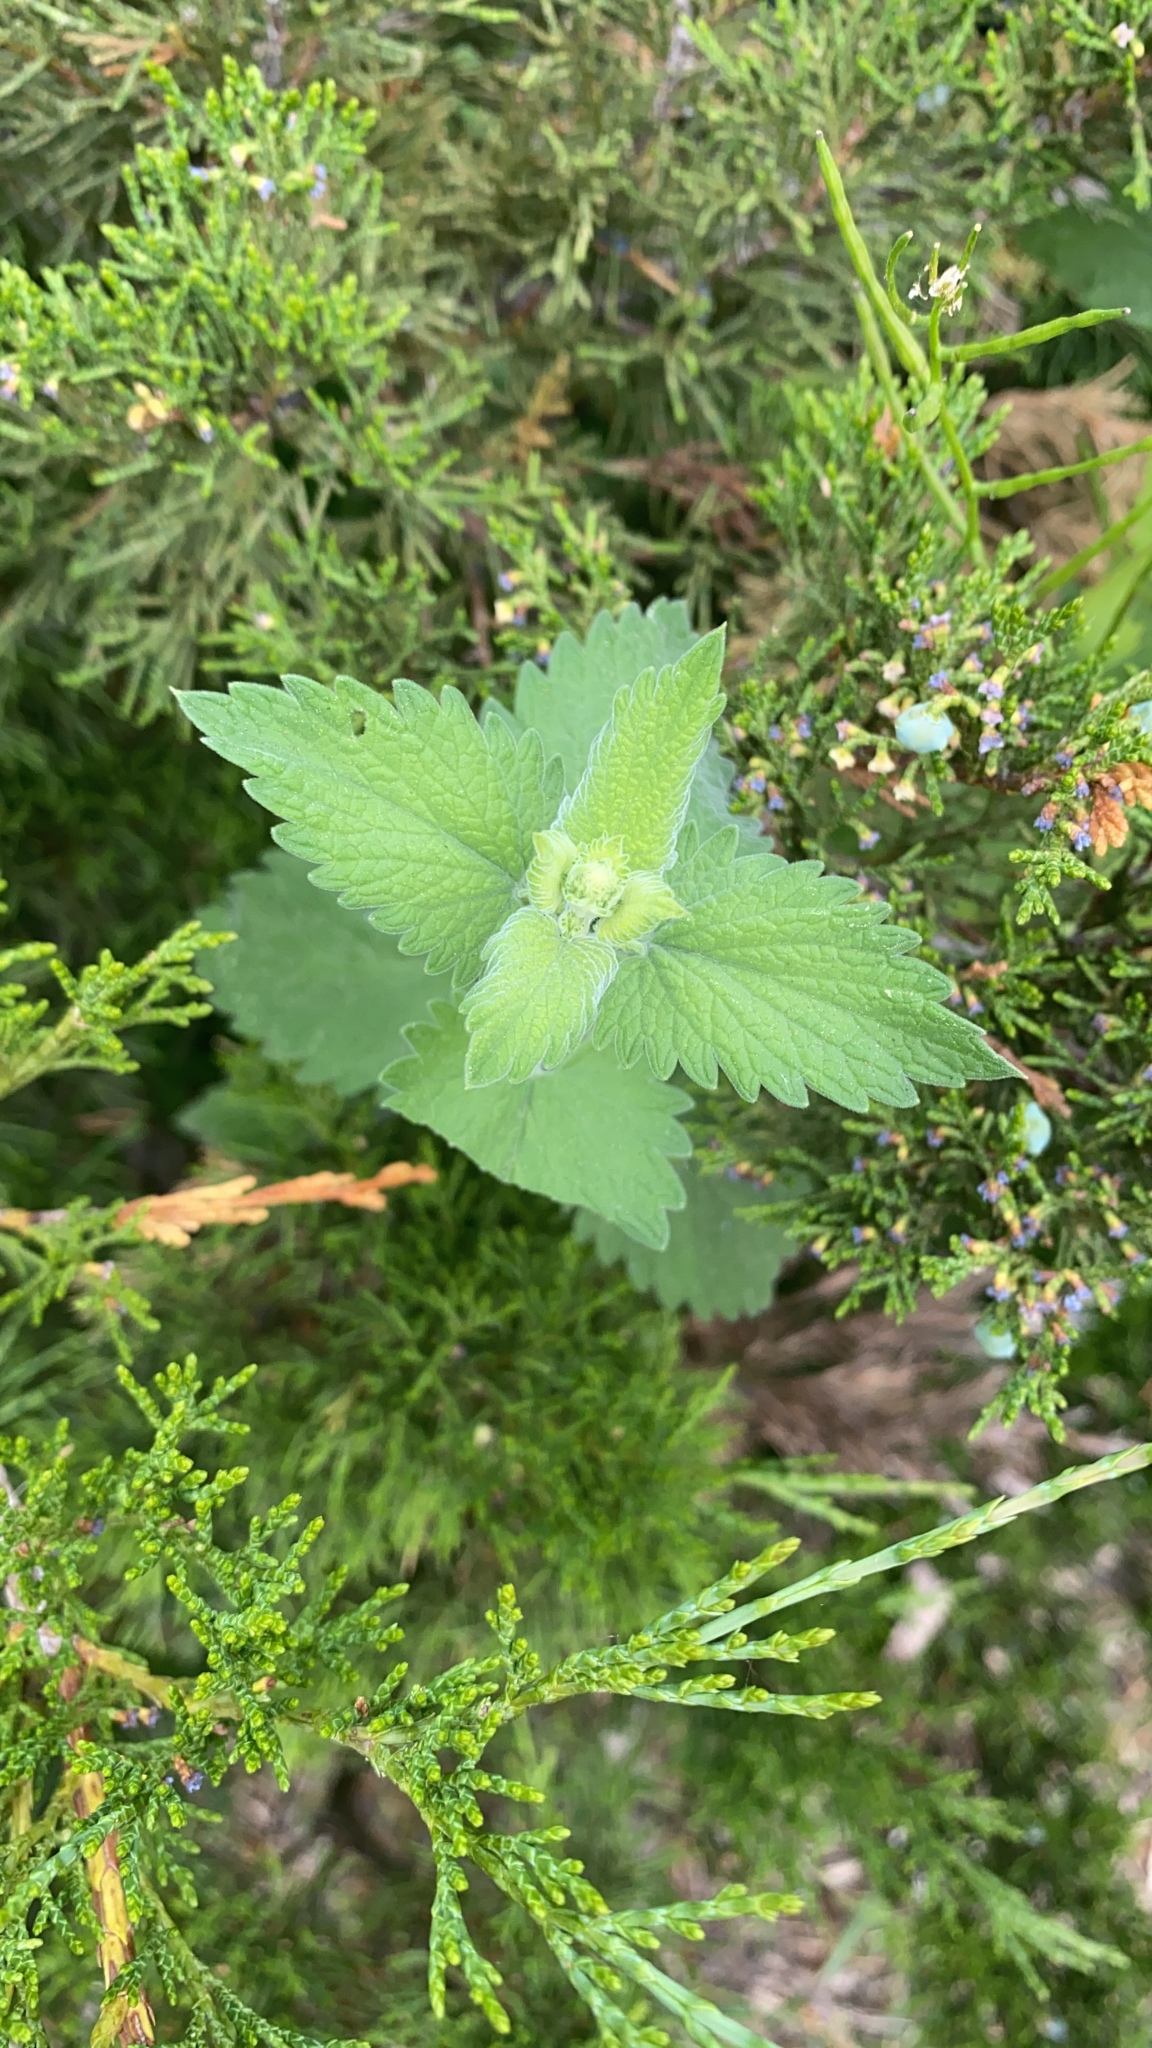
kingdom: Plantae
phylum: Tracheophyta
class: Magnoliopsida
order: Lamiales
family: Lamiaceae
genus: Nepeta
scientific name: Nepeta cataria
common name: Catnip
